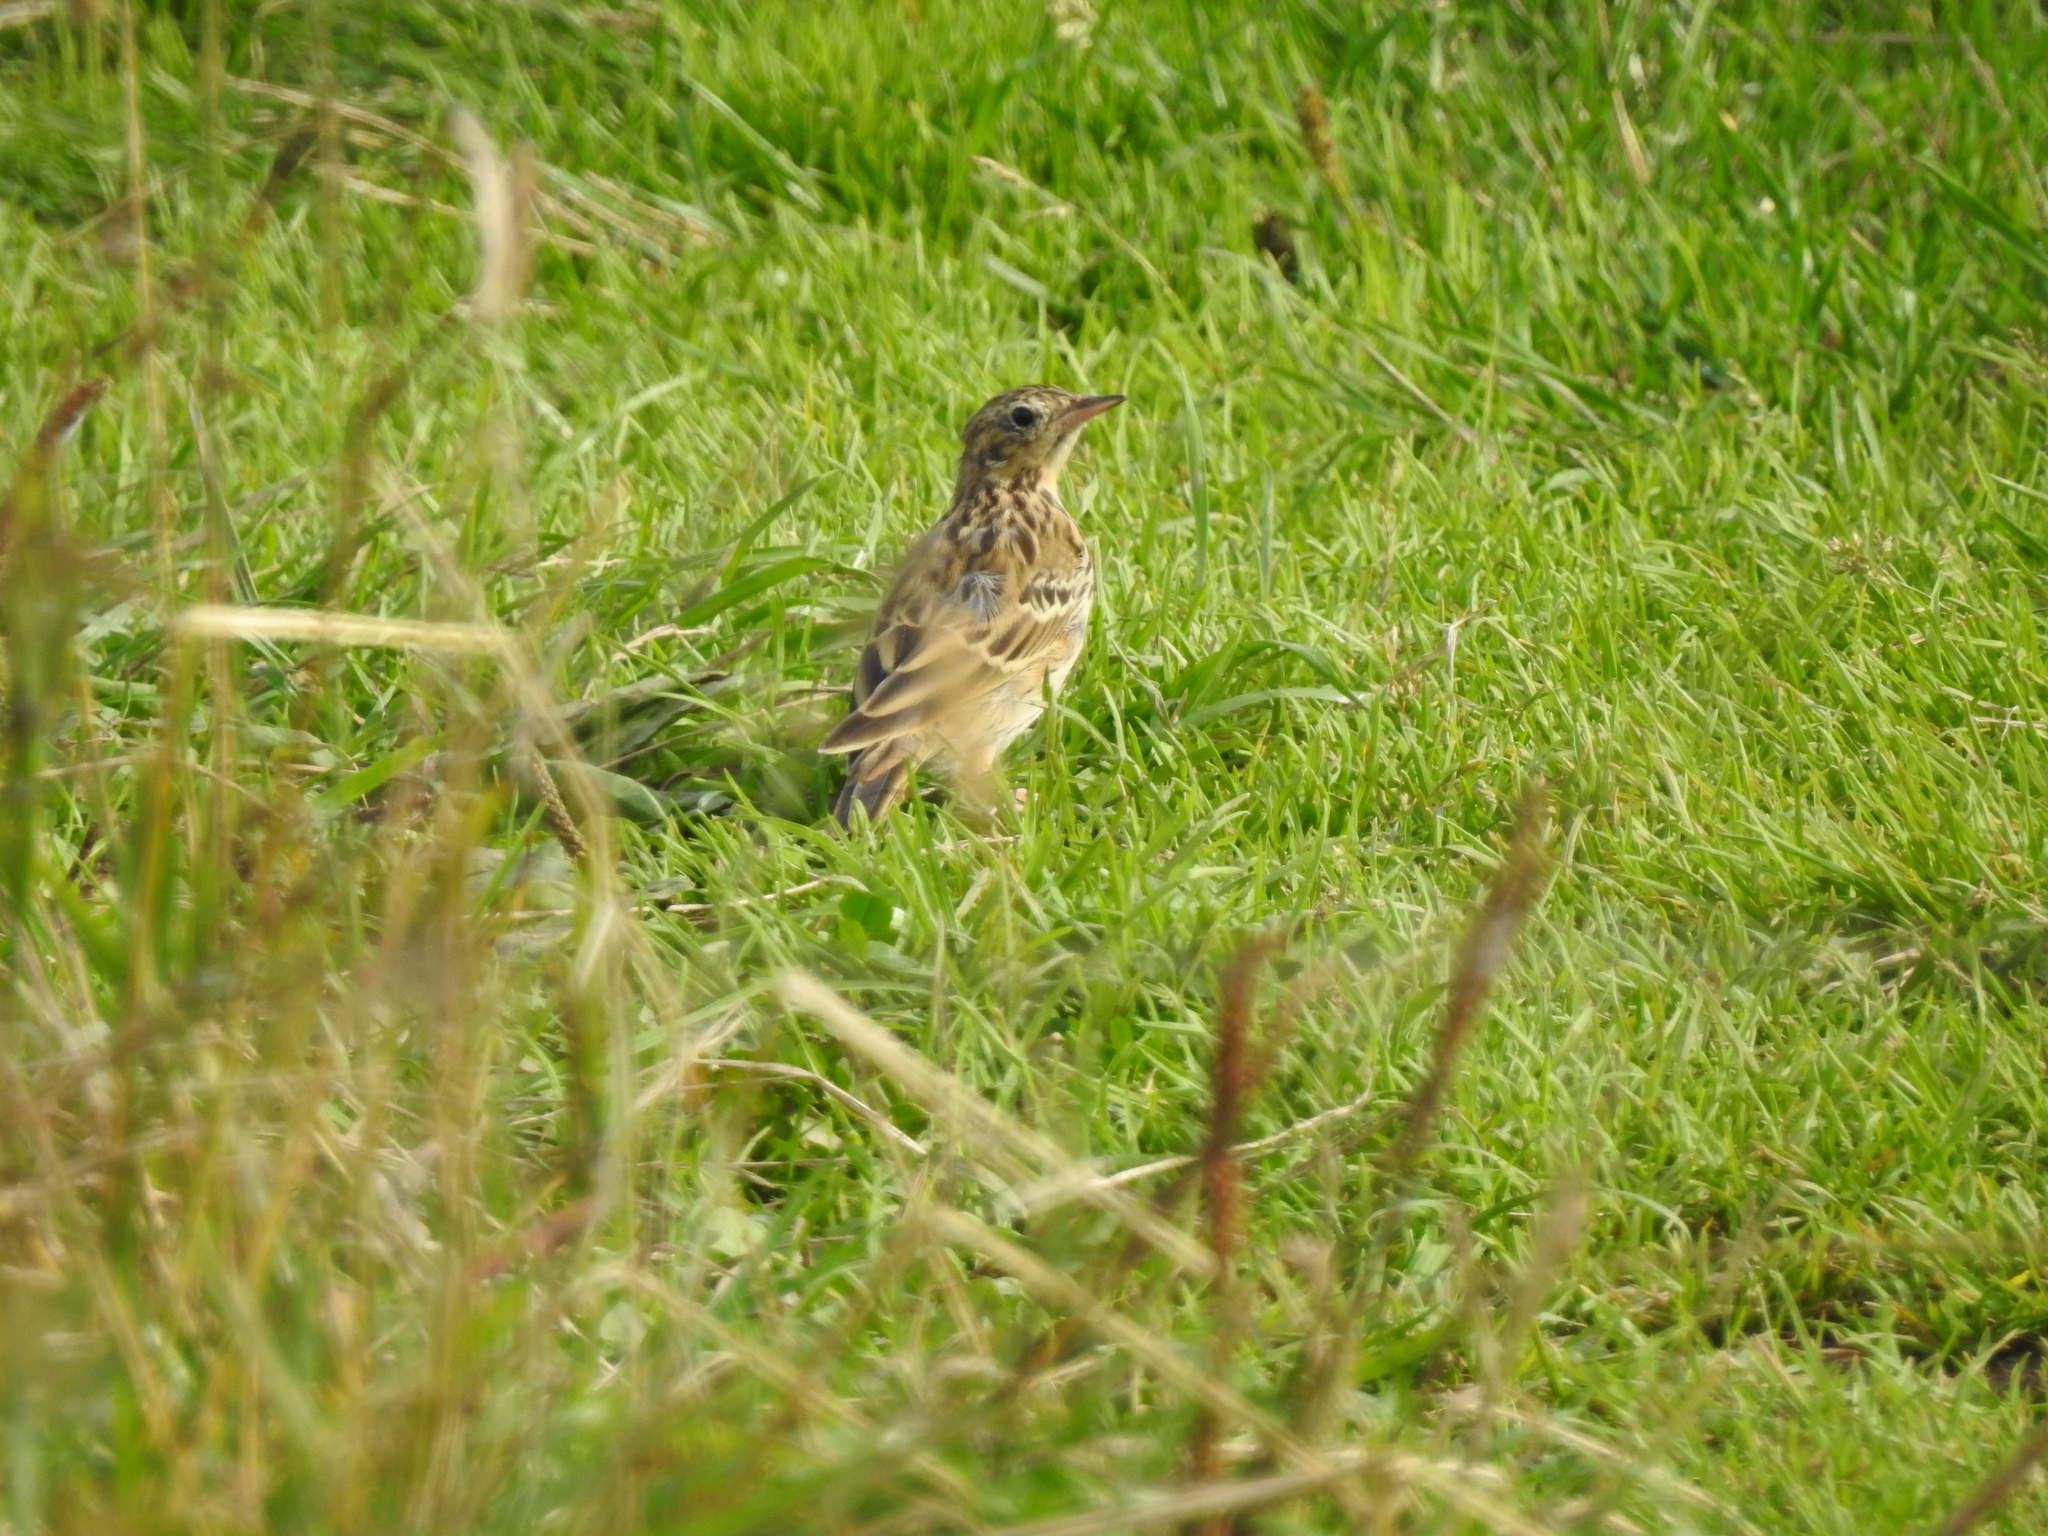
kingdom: Animalia
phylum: Chordata
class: Aves
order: Passeriformes
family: Motacillidae
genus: Anthus
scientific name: Anthus trivialis
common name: Tree pipit
